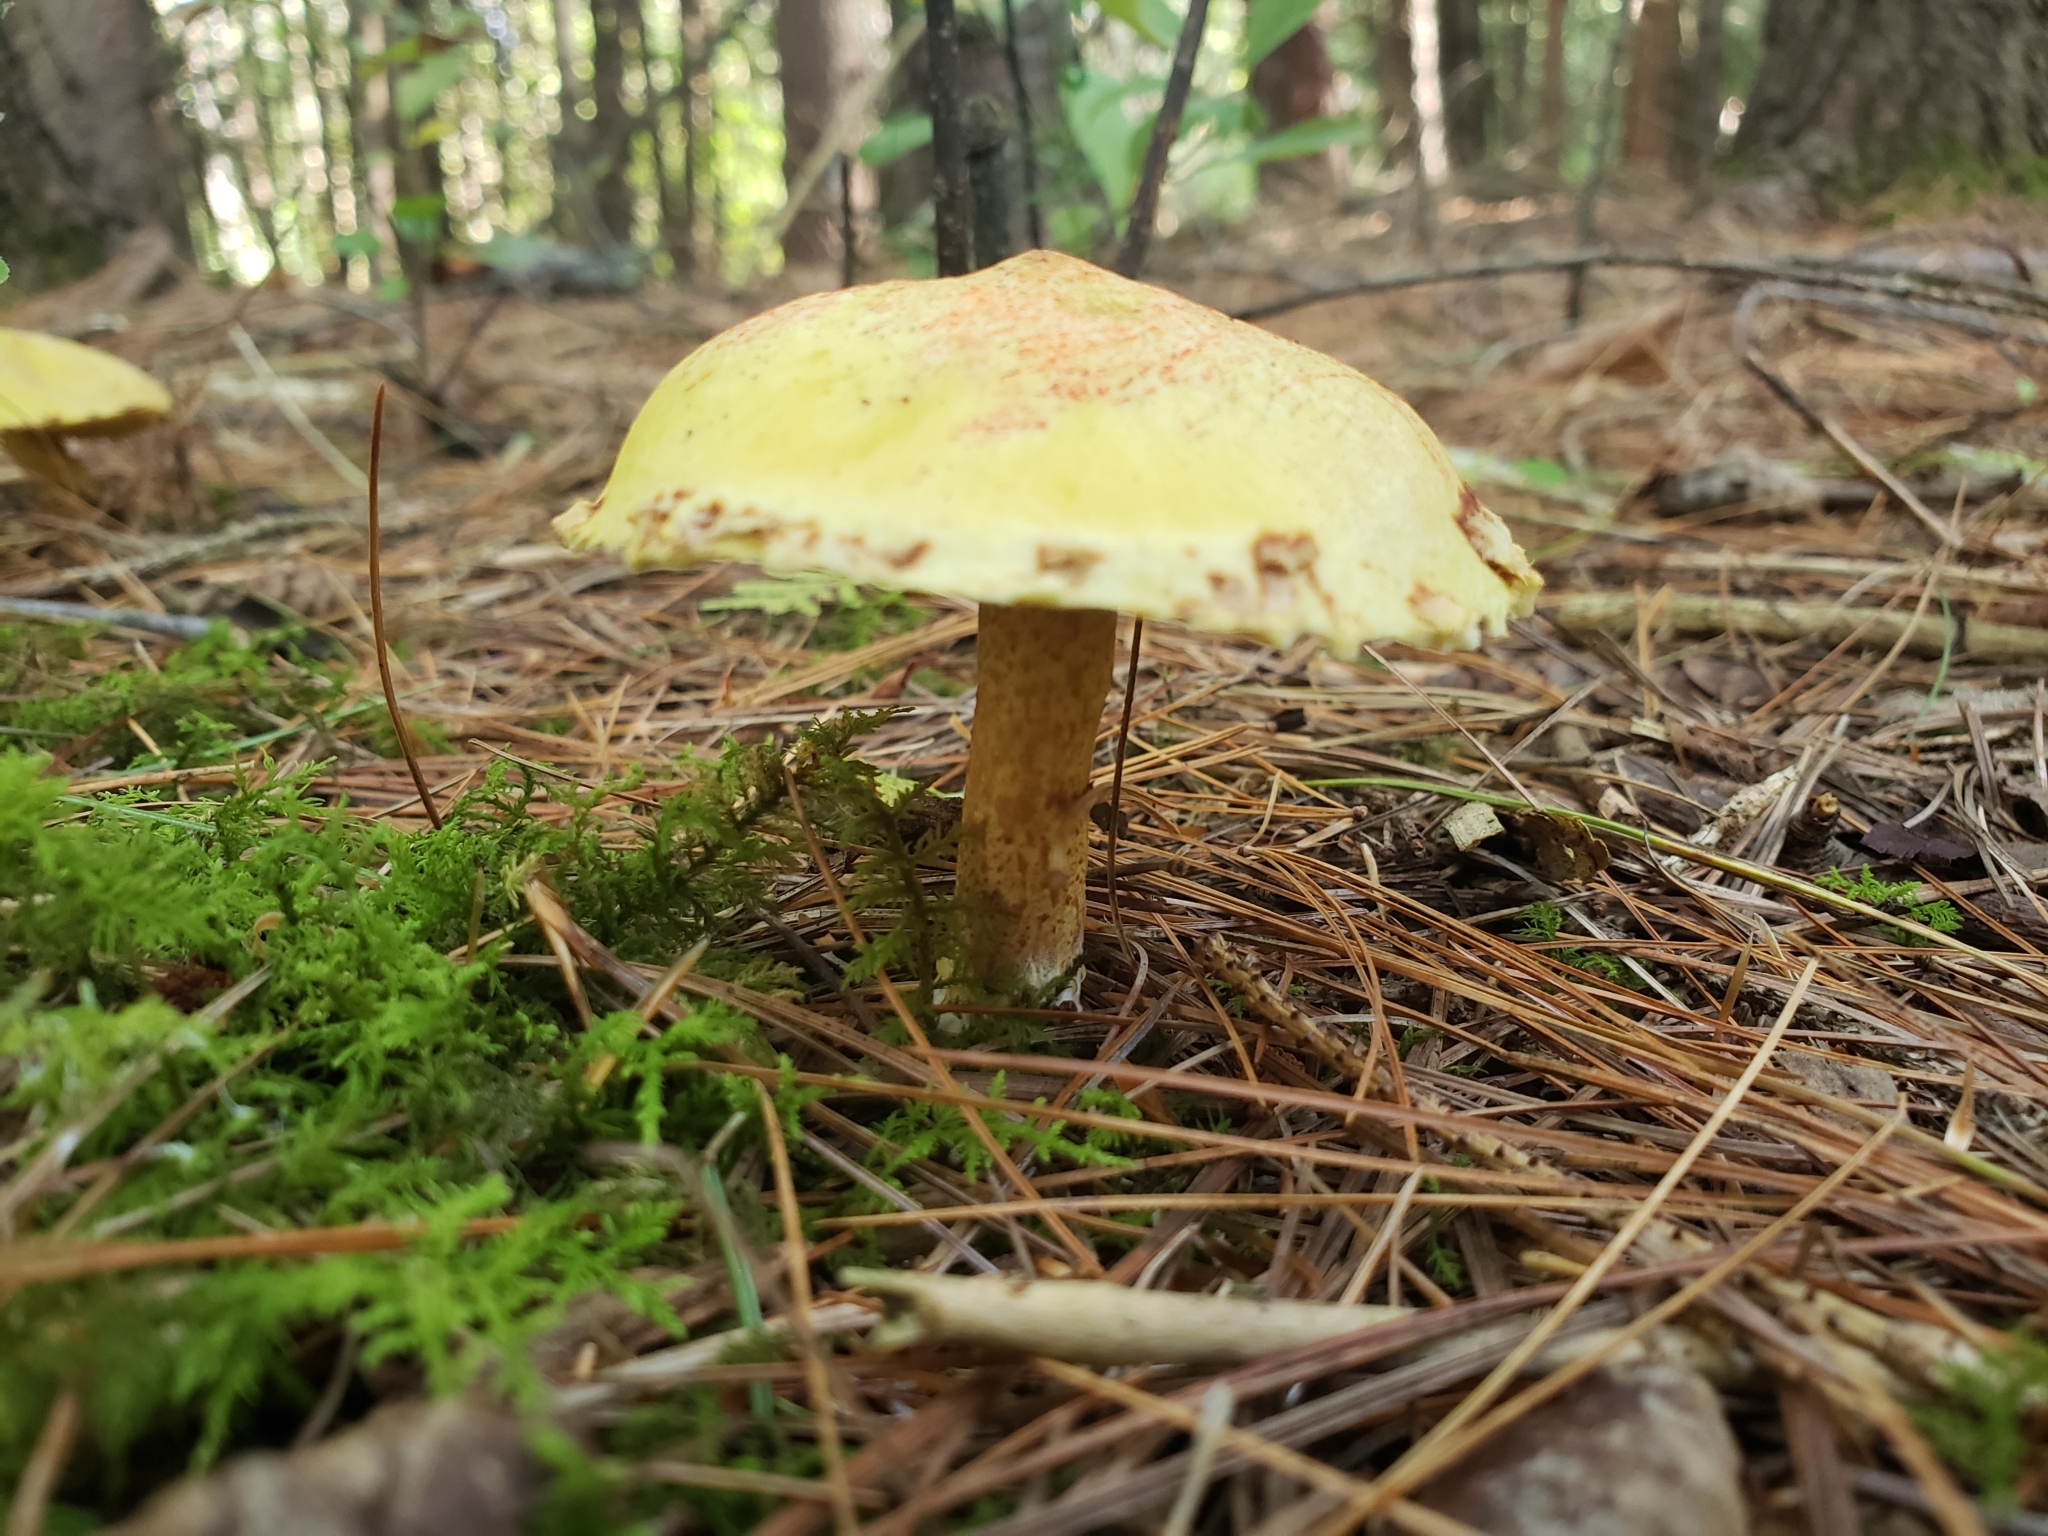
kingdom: Fungi
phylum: Basidiomycota
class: Agaricomycetes
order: Boletales
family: Suillaceae
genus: Suillus
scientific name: Suillus americanus
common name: Chicken fat mushroom
